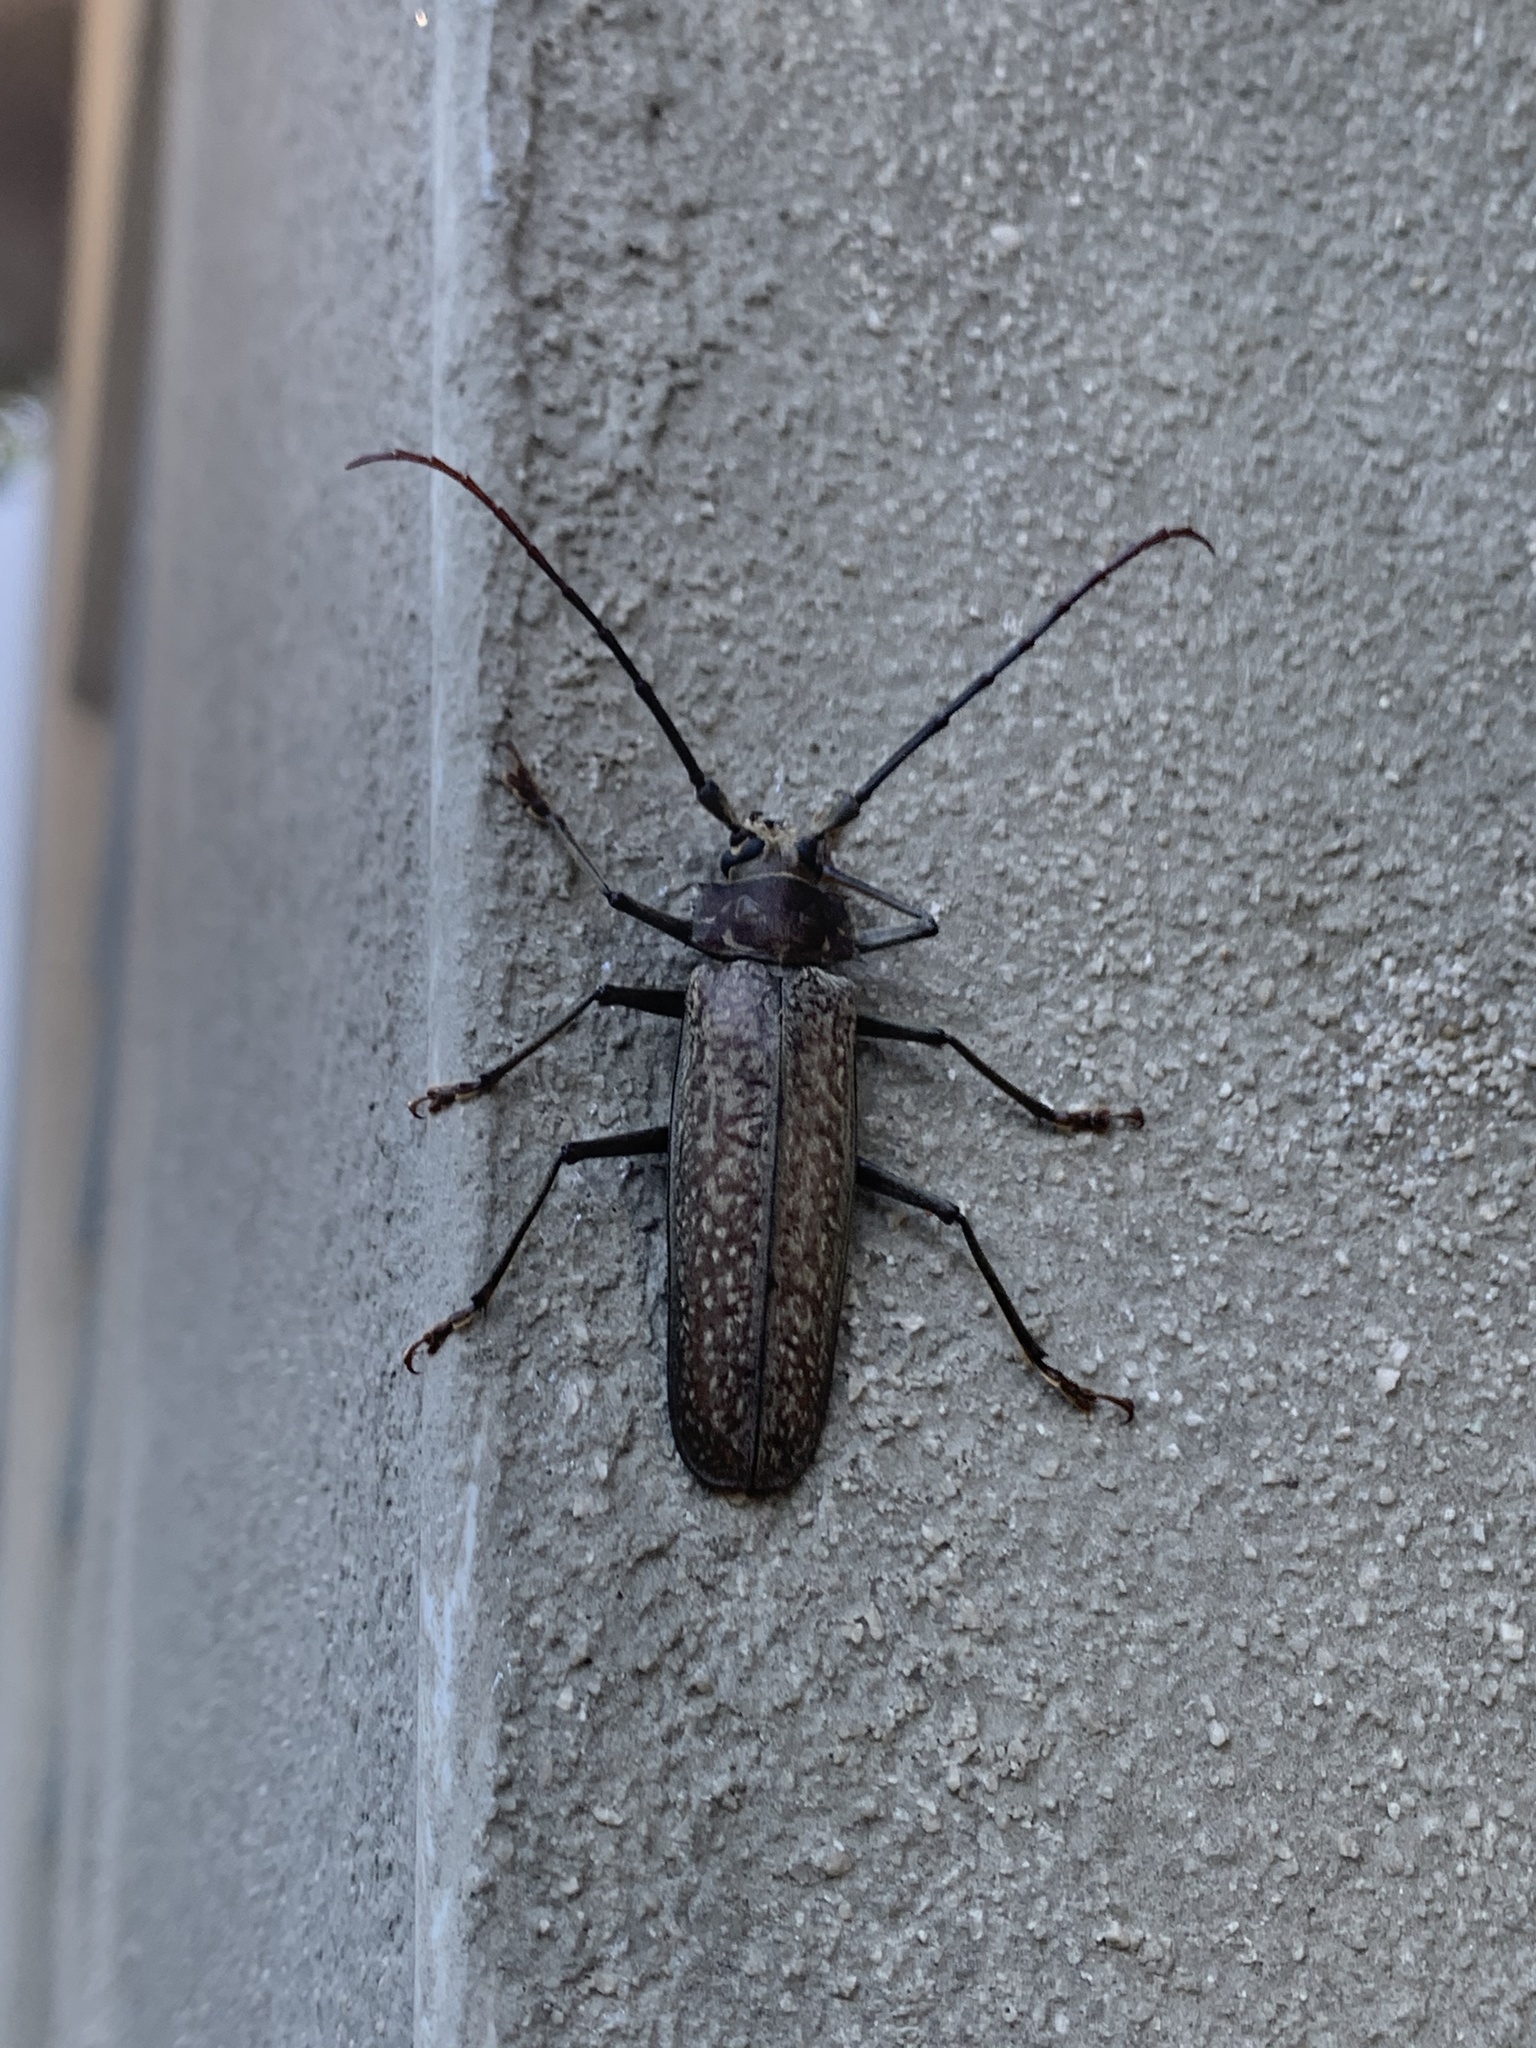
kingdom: Animalia
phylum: Arthropoda
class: Insecta
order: Coleoptera
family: Cerambycidae
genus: Callipogon
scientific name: Callipogon sericeus
